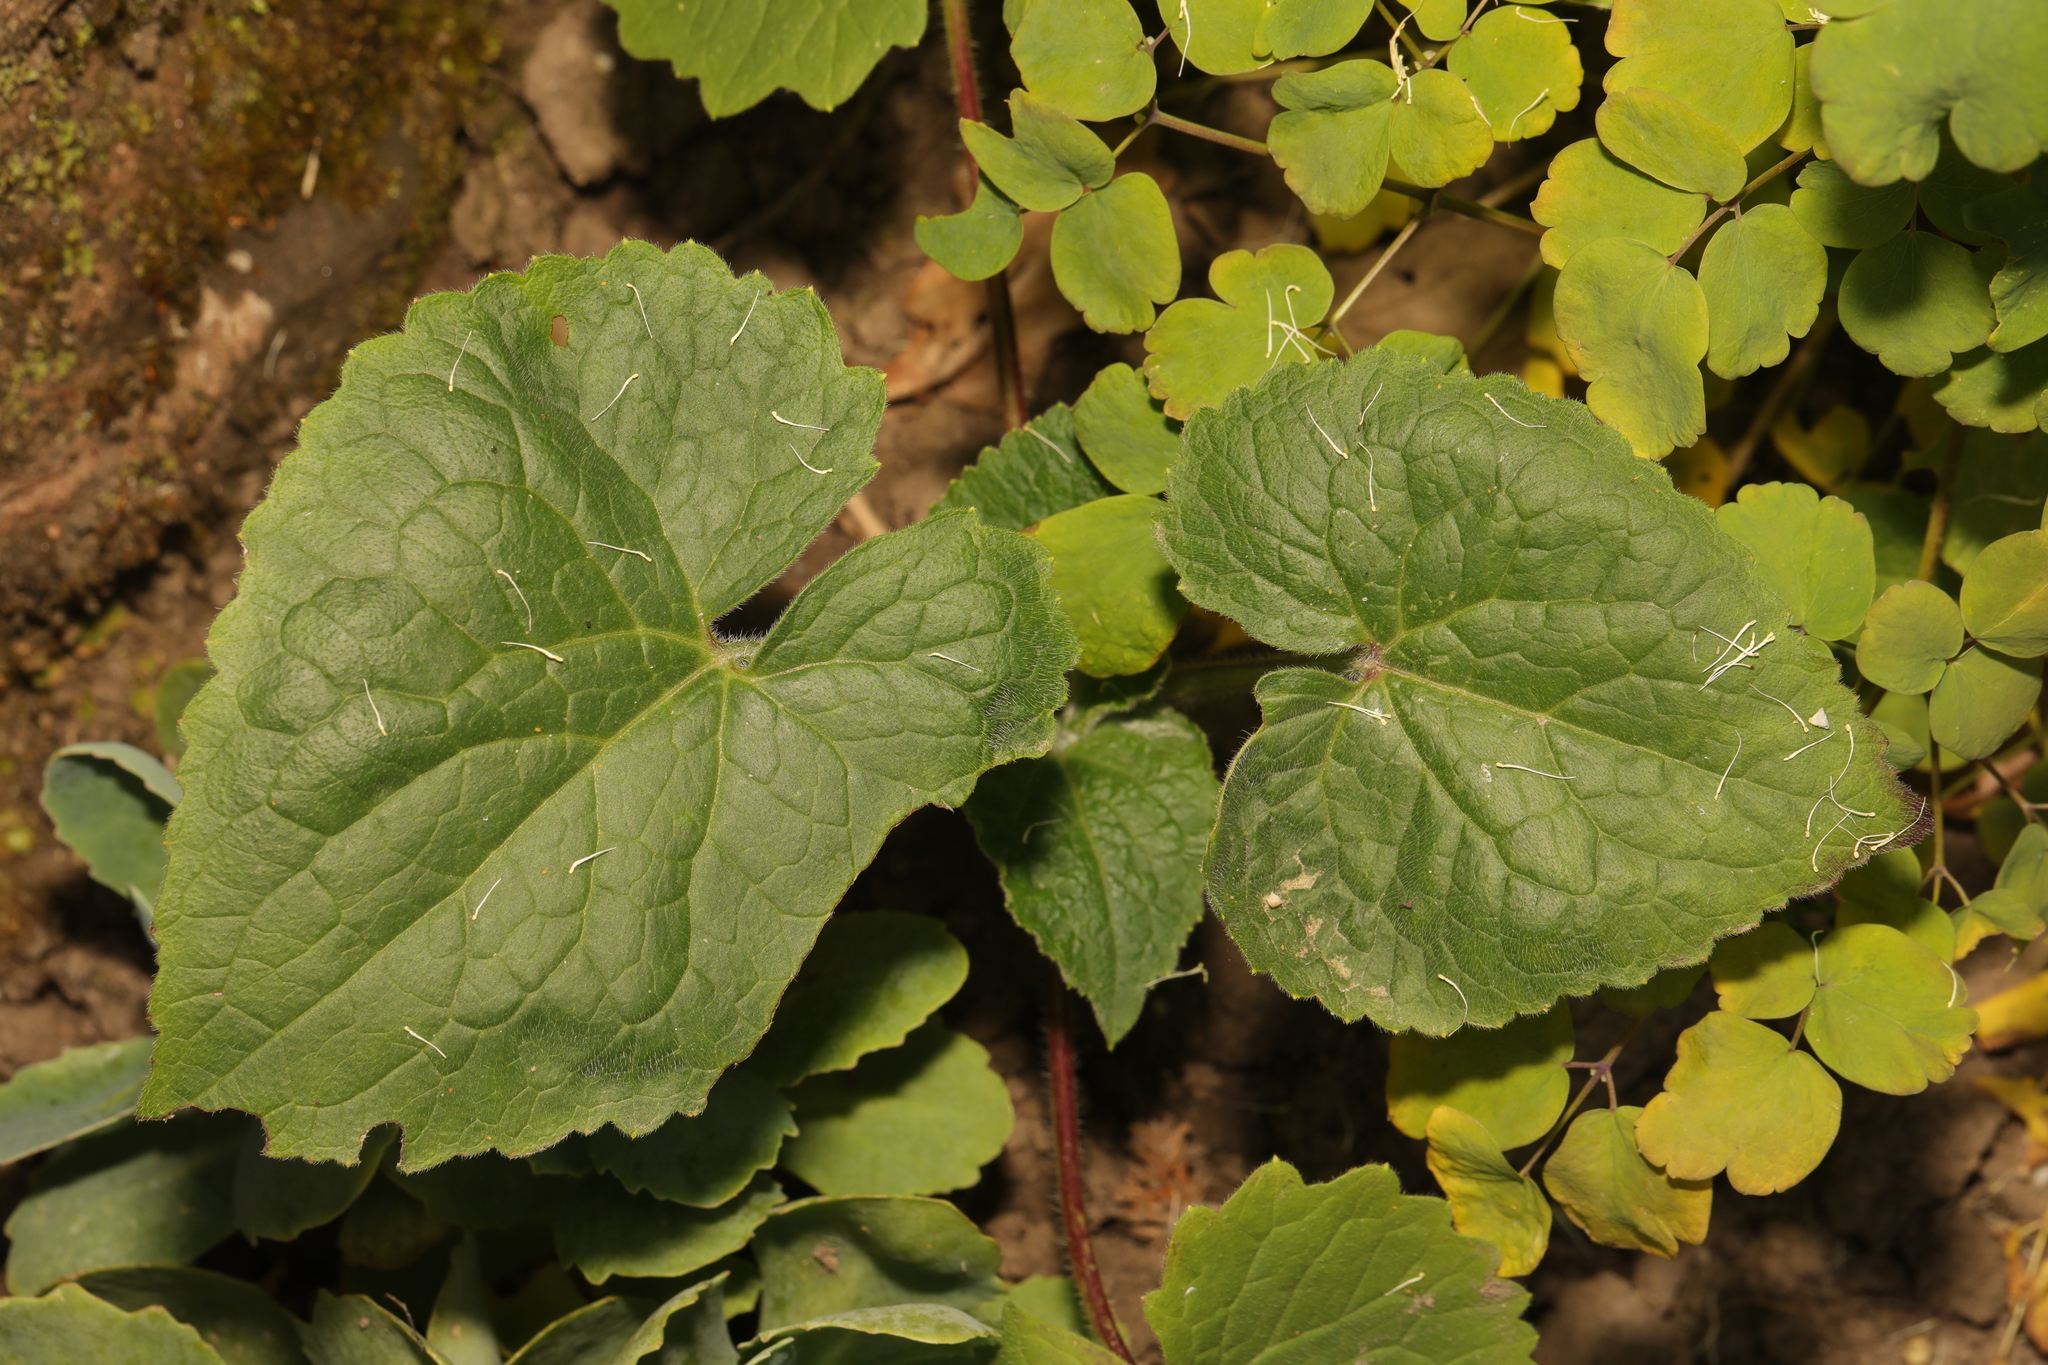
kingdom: Plantae
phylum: Tracheophyta
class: Magnoliopsida
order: Brassicales
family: Brassicaceae
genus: Lunaria
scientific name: Lunaria annua
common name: Honesty
